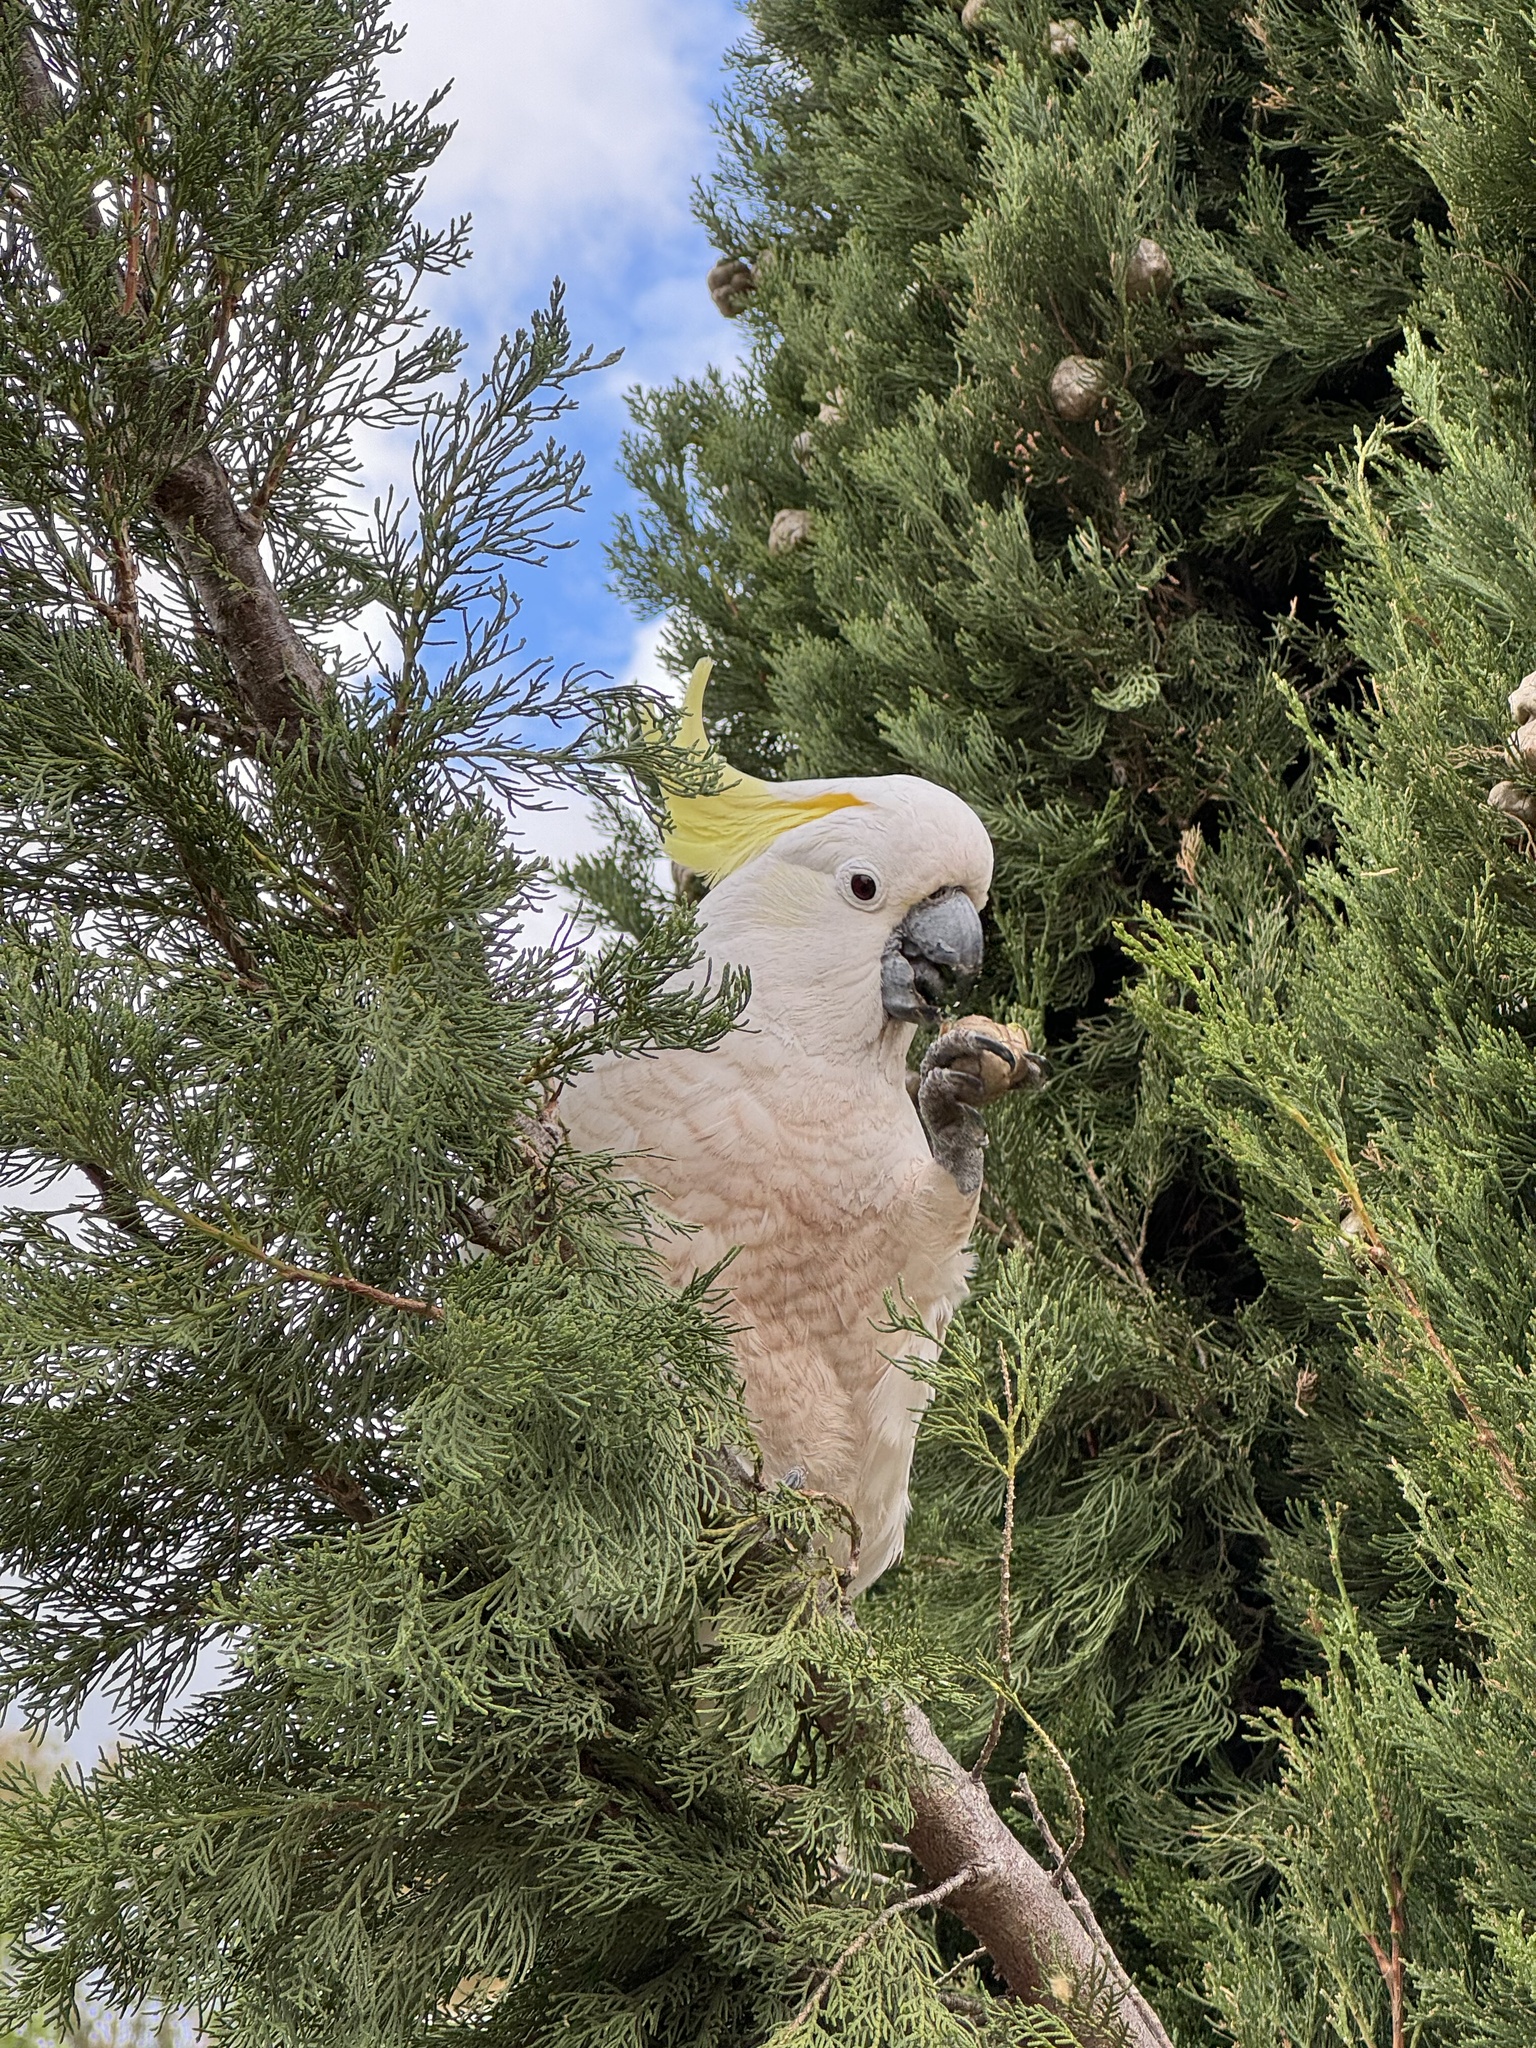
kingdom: Animalia
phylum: Chordata
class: Aves
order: Psittaciformes
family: Psittacidae
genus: Cacatua
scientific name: Cacatua galerita
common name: Sulphur-crested cockatoo
